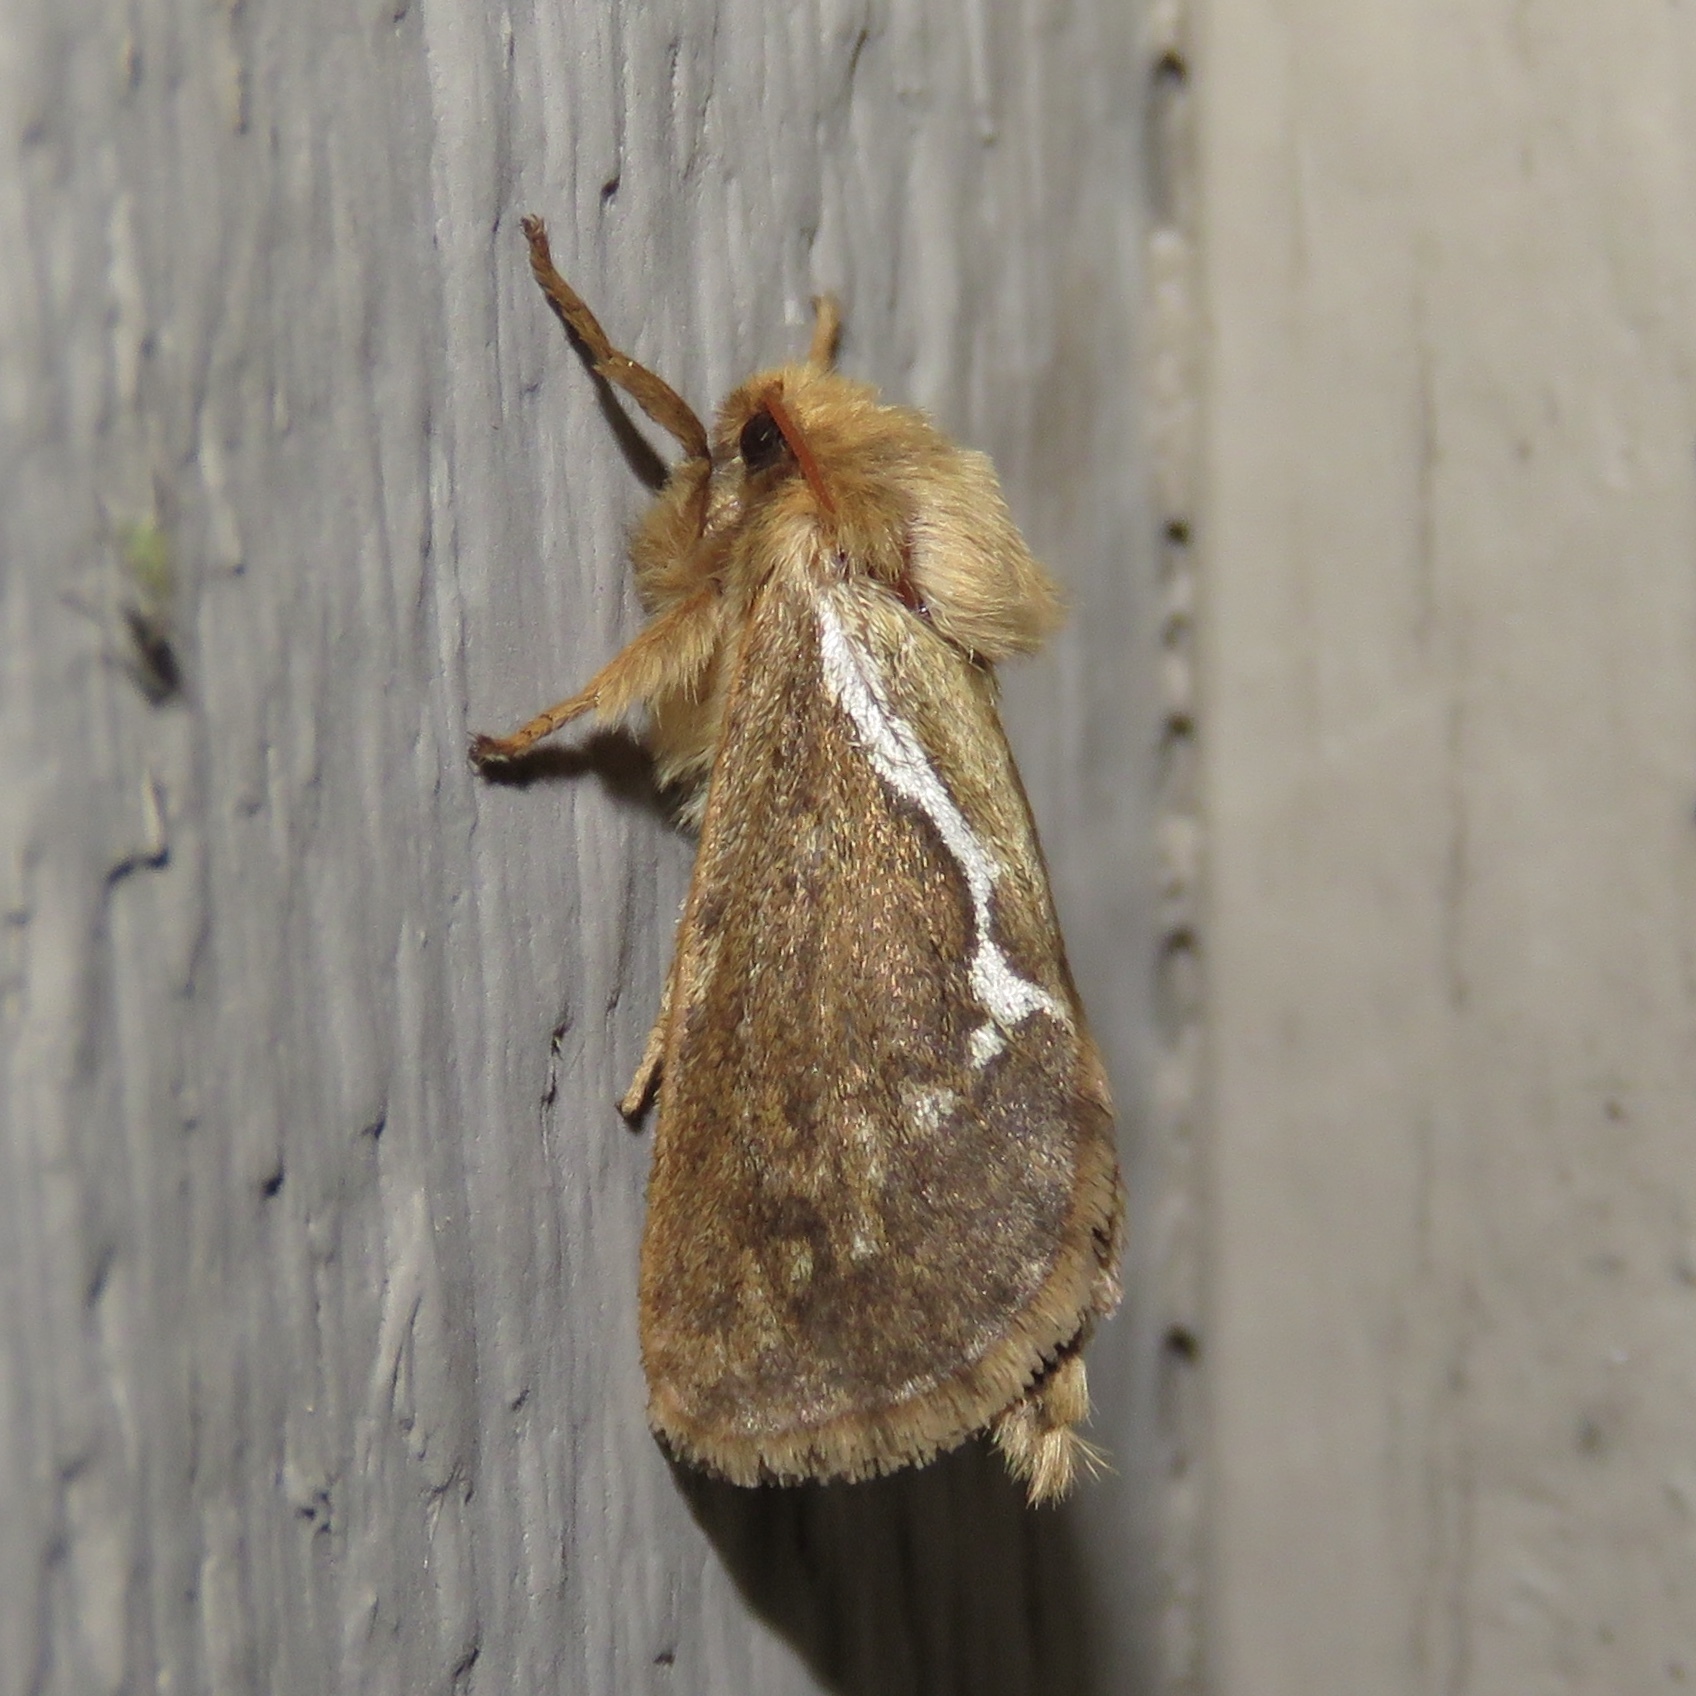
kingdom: Animalia
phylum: Arthropoda
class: Insecta
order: Lepidoptera
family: Hepialidae
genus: Korscheltellus
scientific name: Korscheltellus lupulina
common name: Common swift
